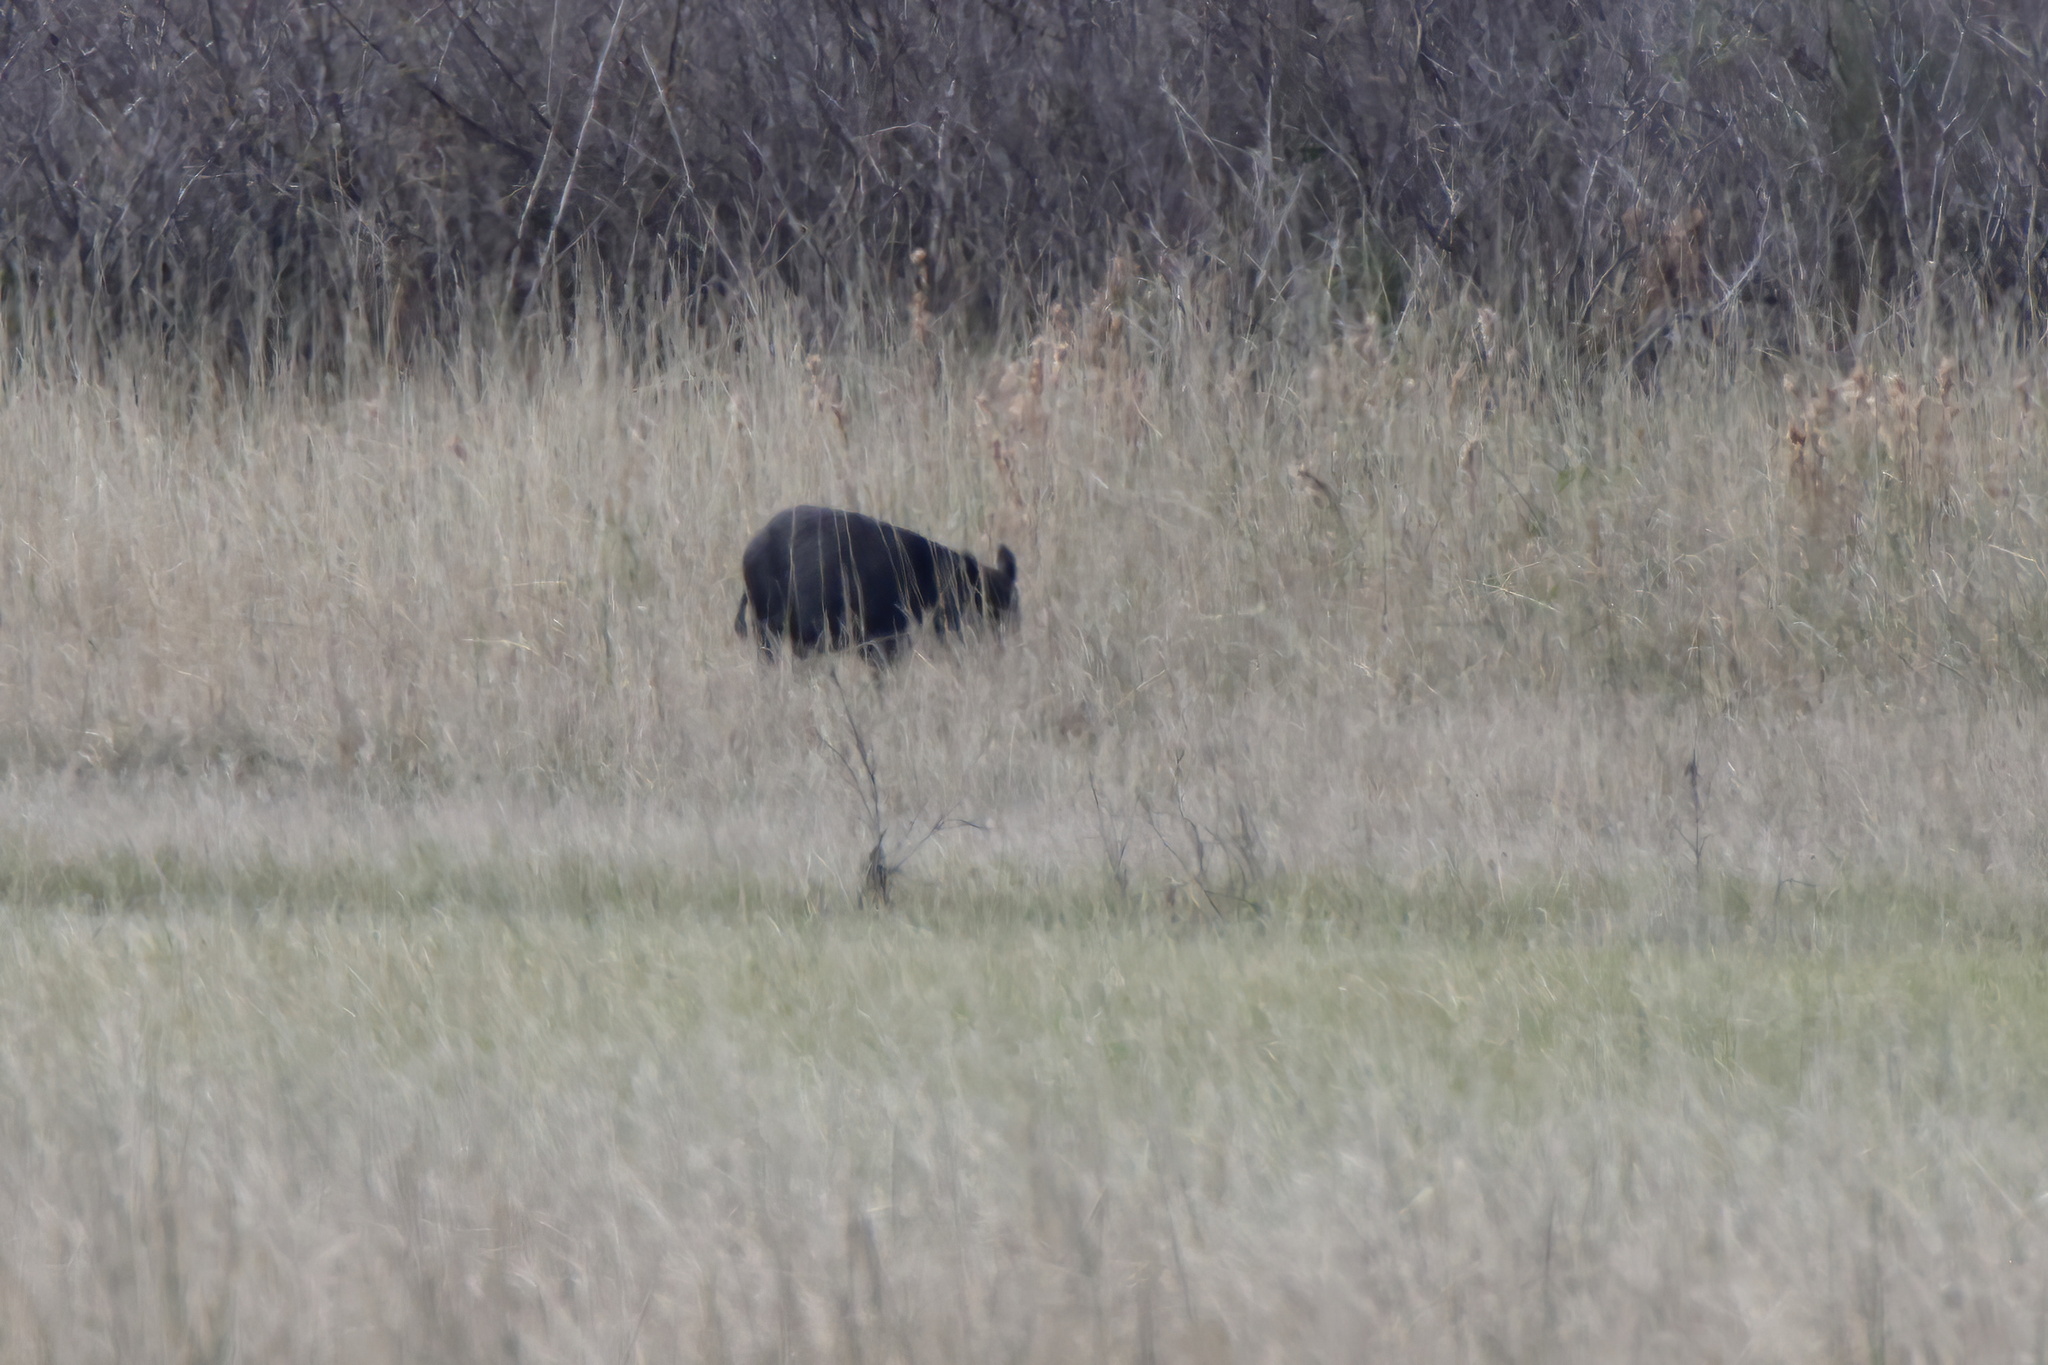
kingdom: Animalia
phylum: Chordata
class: Mammalia
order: Artiodactyla
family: Suidae
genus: Sus
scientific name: Sus scrofa
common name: Wild boar
